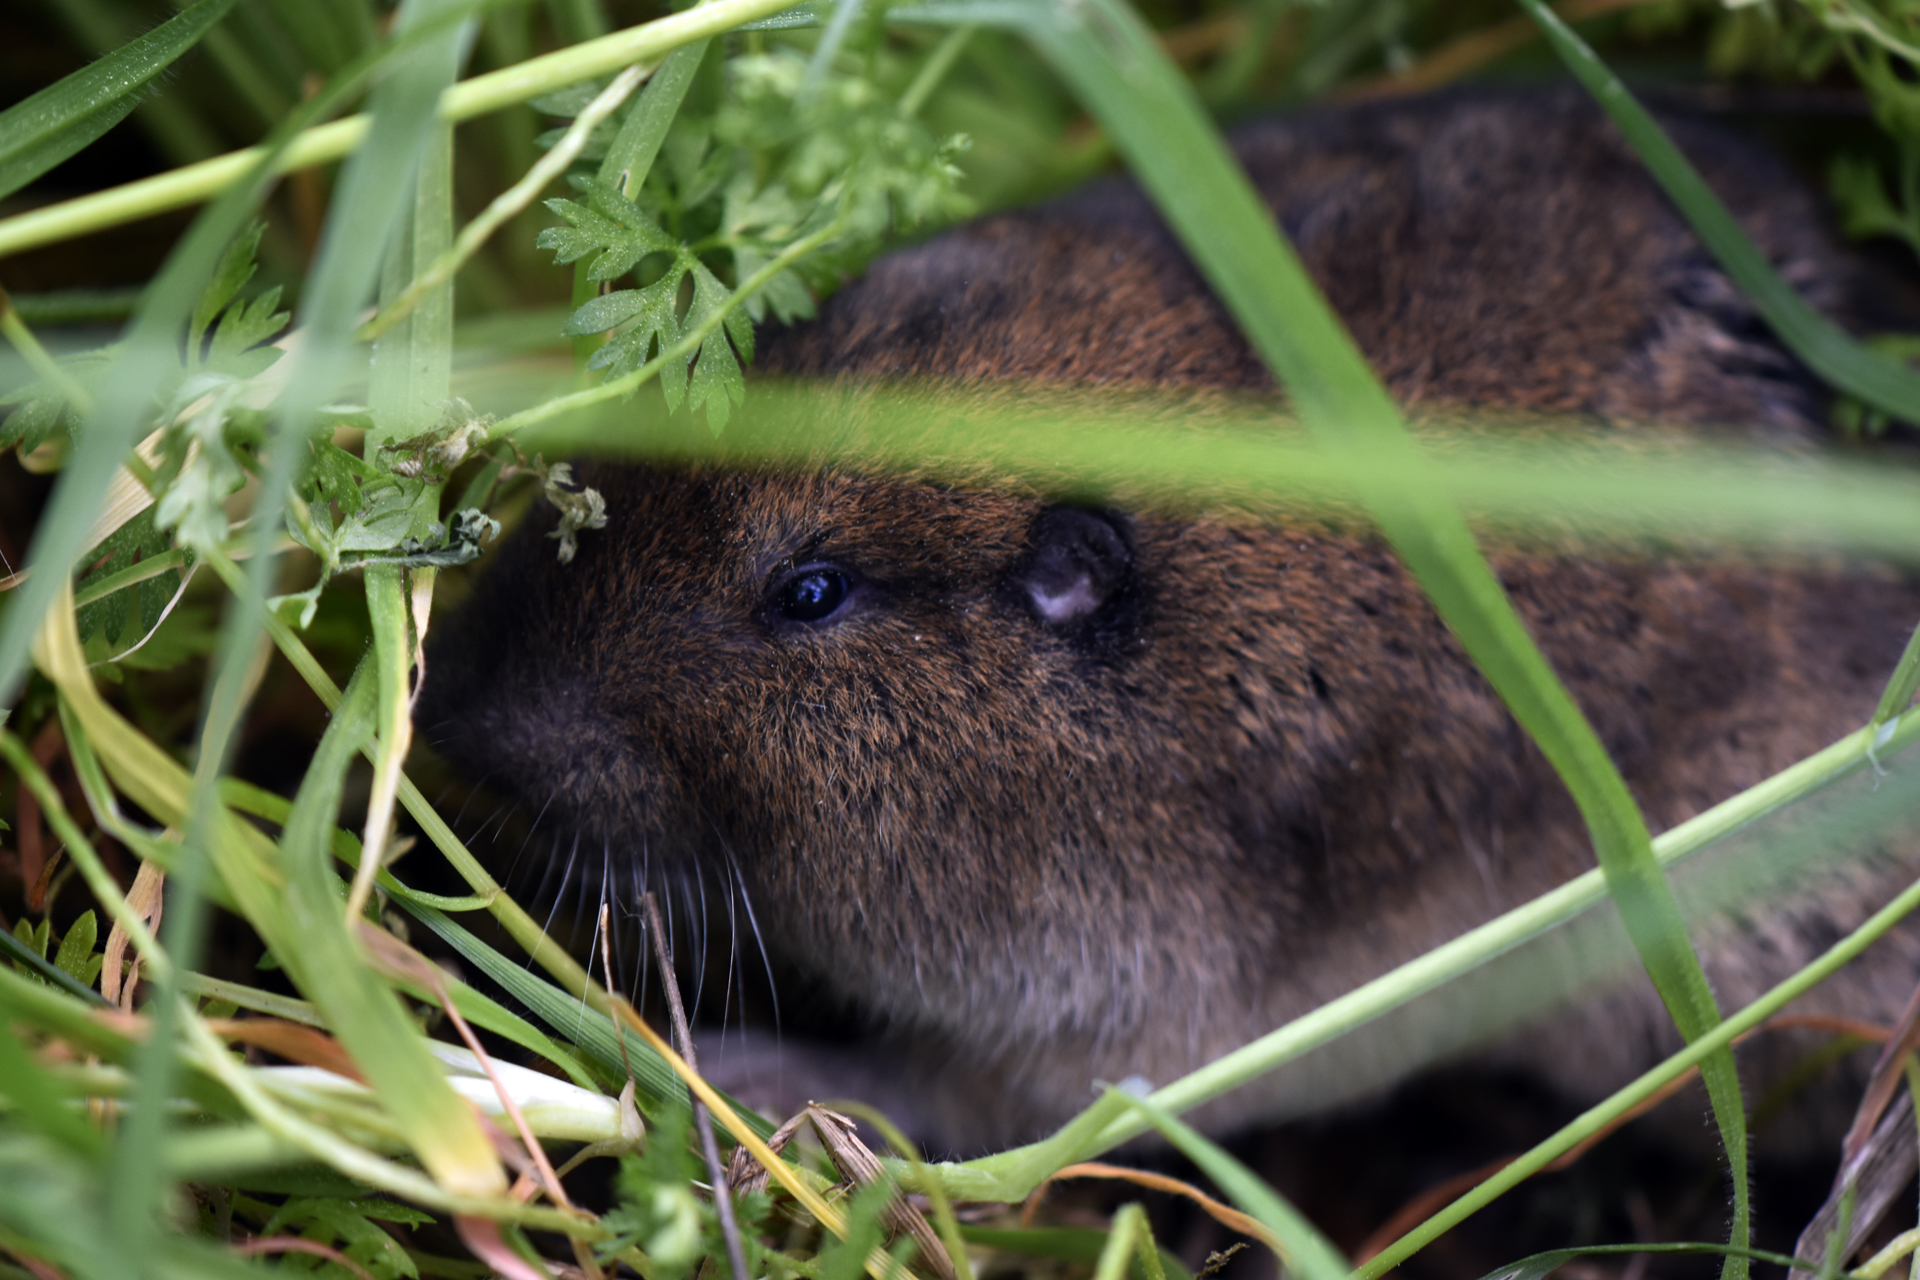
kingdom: Animalia
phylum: Chordata
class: Mammalia
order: Rodentia
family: Geomyidae
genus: Thomomys
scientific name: Thomomys bottae
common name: Botta's pocket gopher
